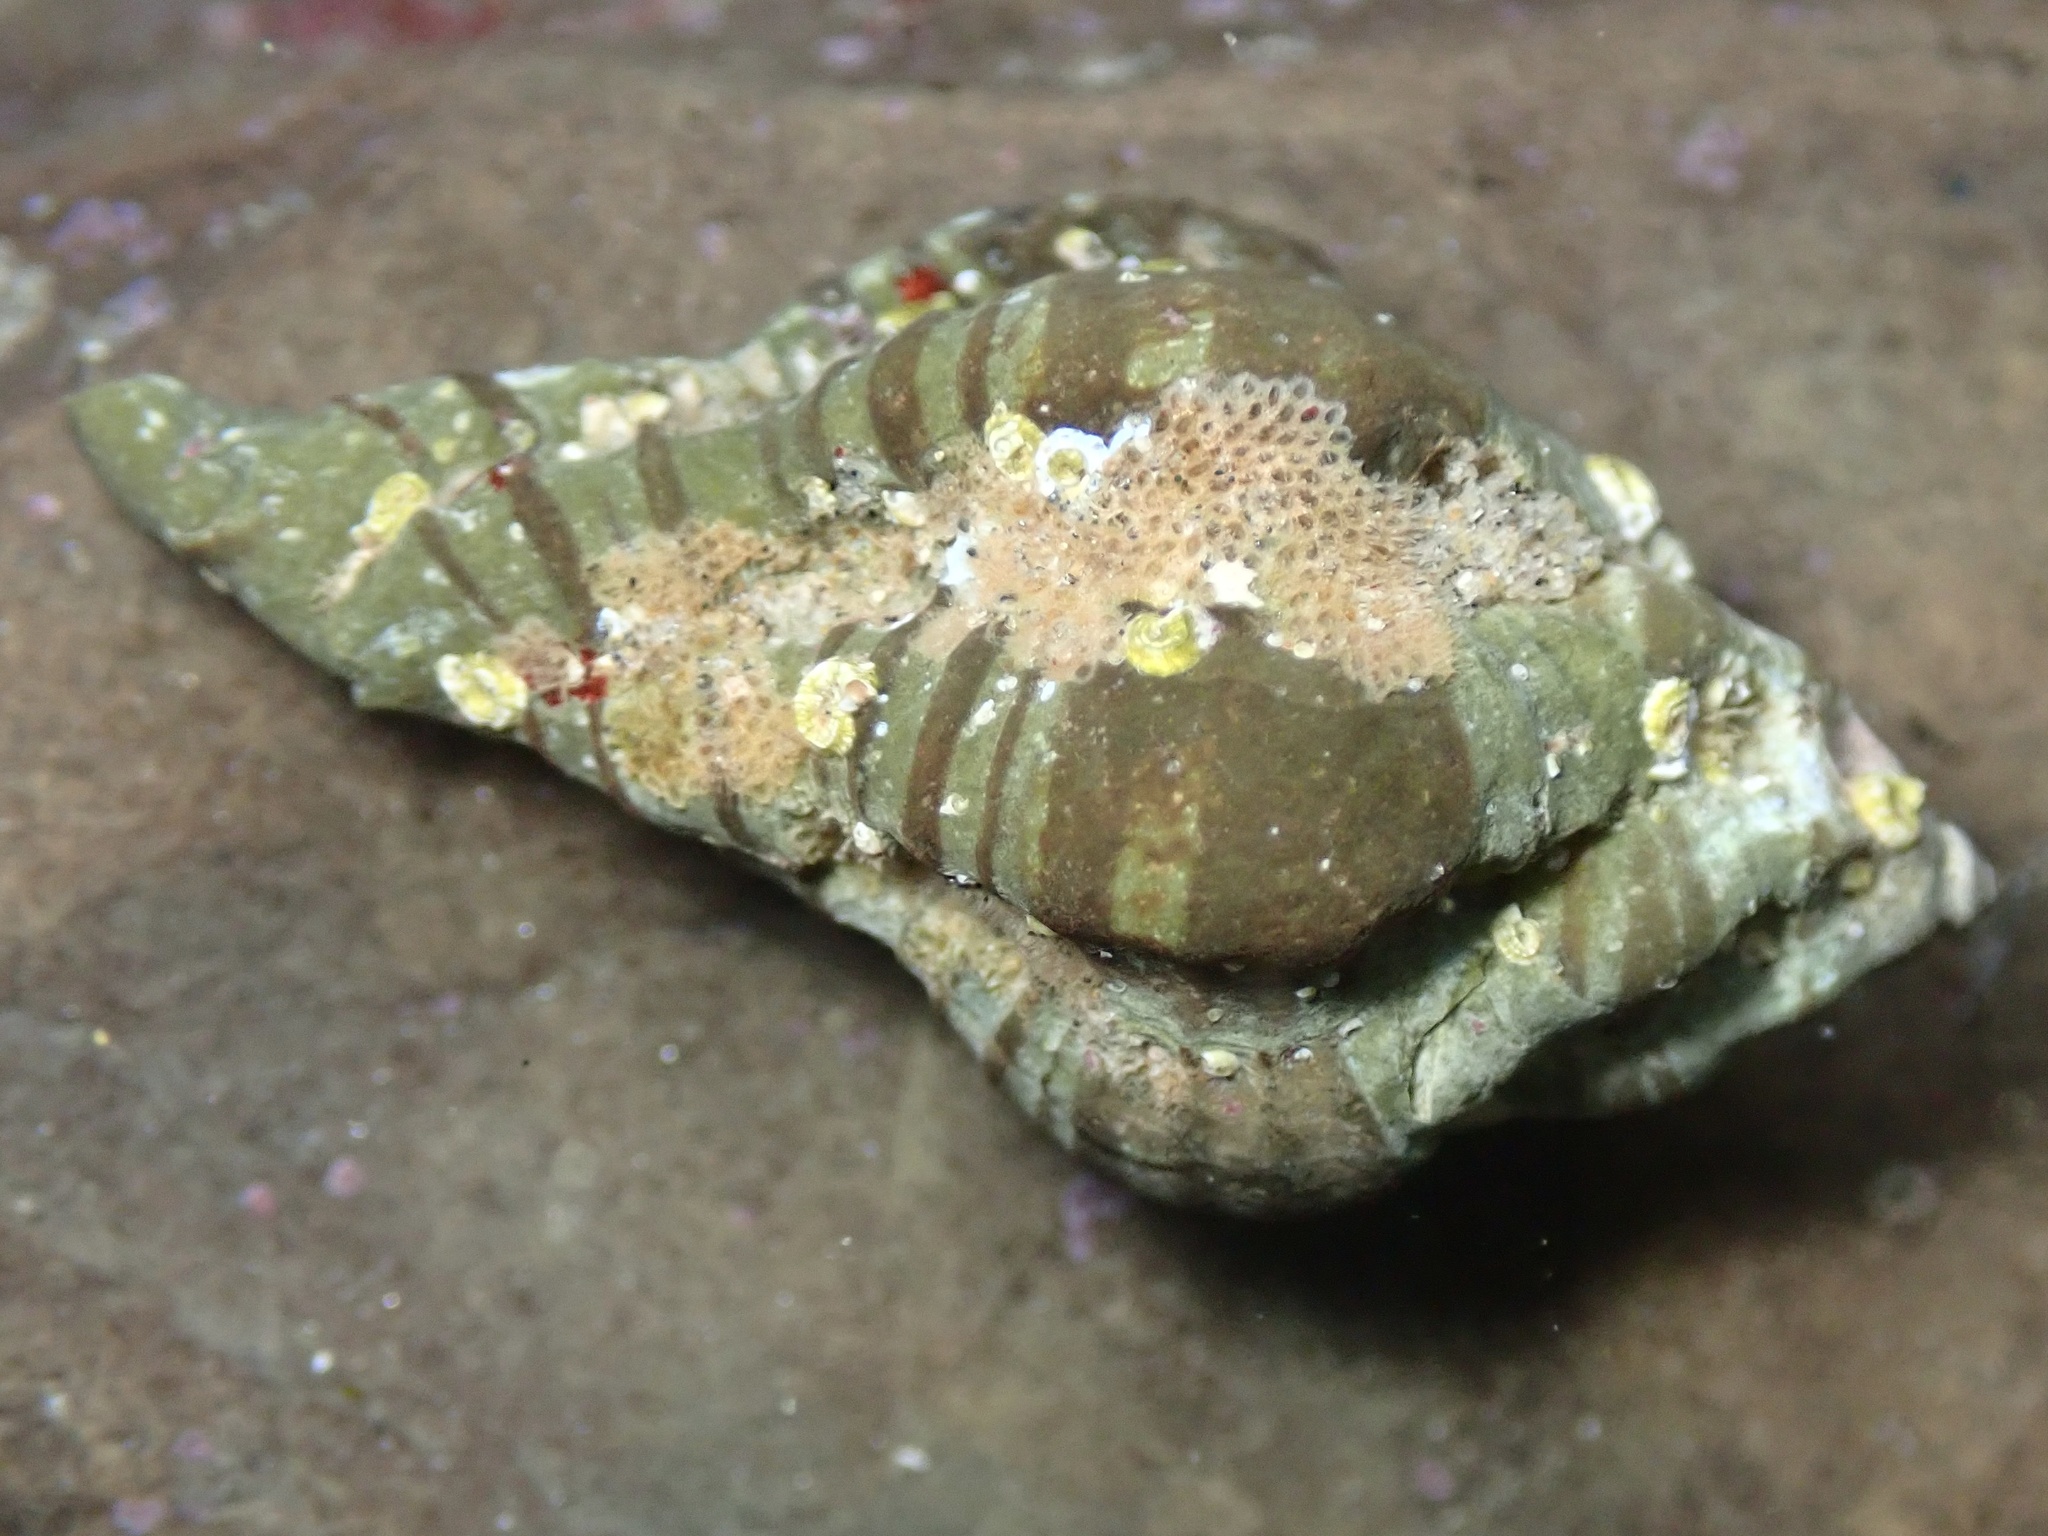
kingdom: Animalia
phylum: Mollusca
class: Gastropoda
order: Neogastropoda
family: Muricidae
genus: Maxwellia
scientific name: Maxwellia gemma
